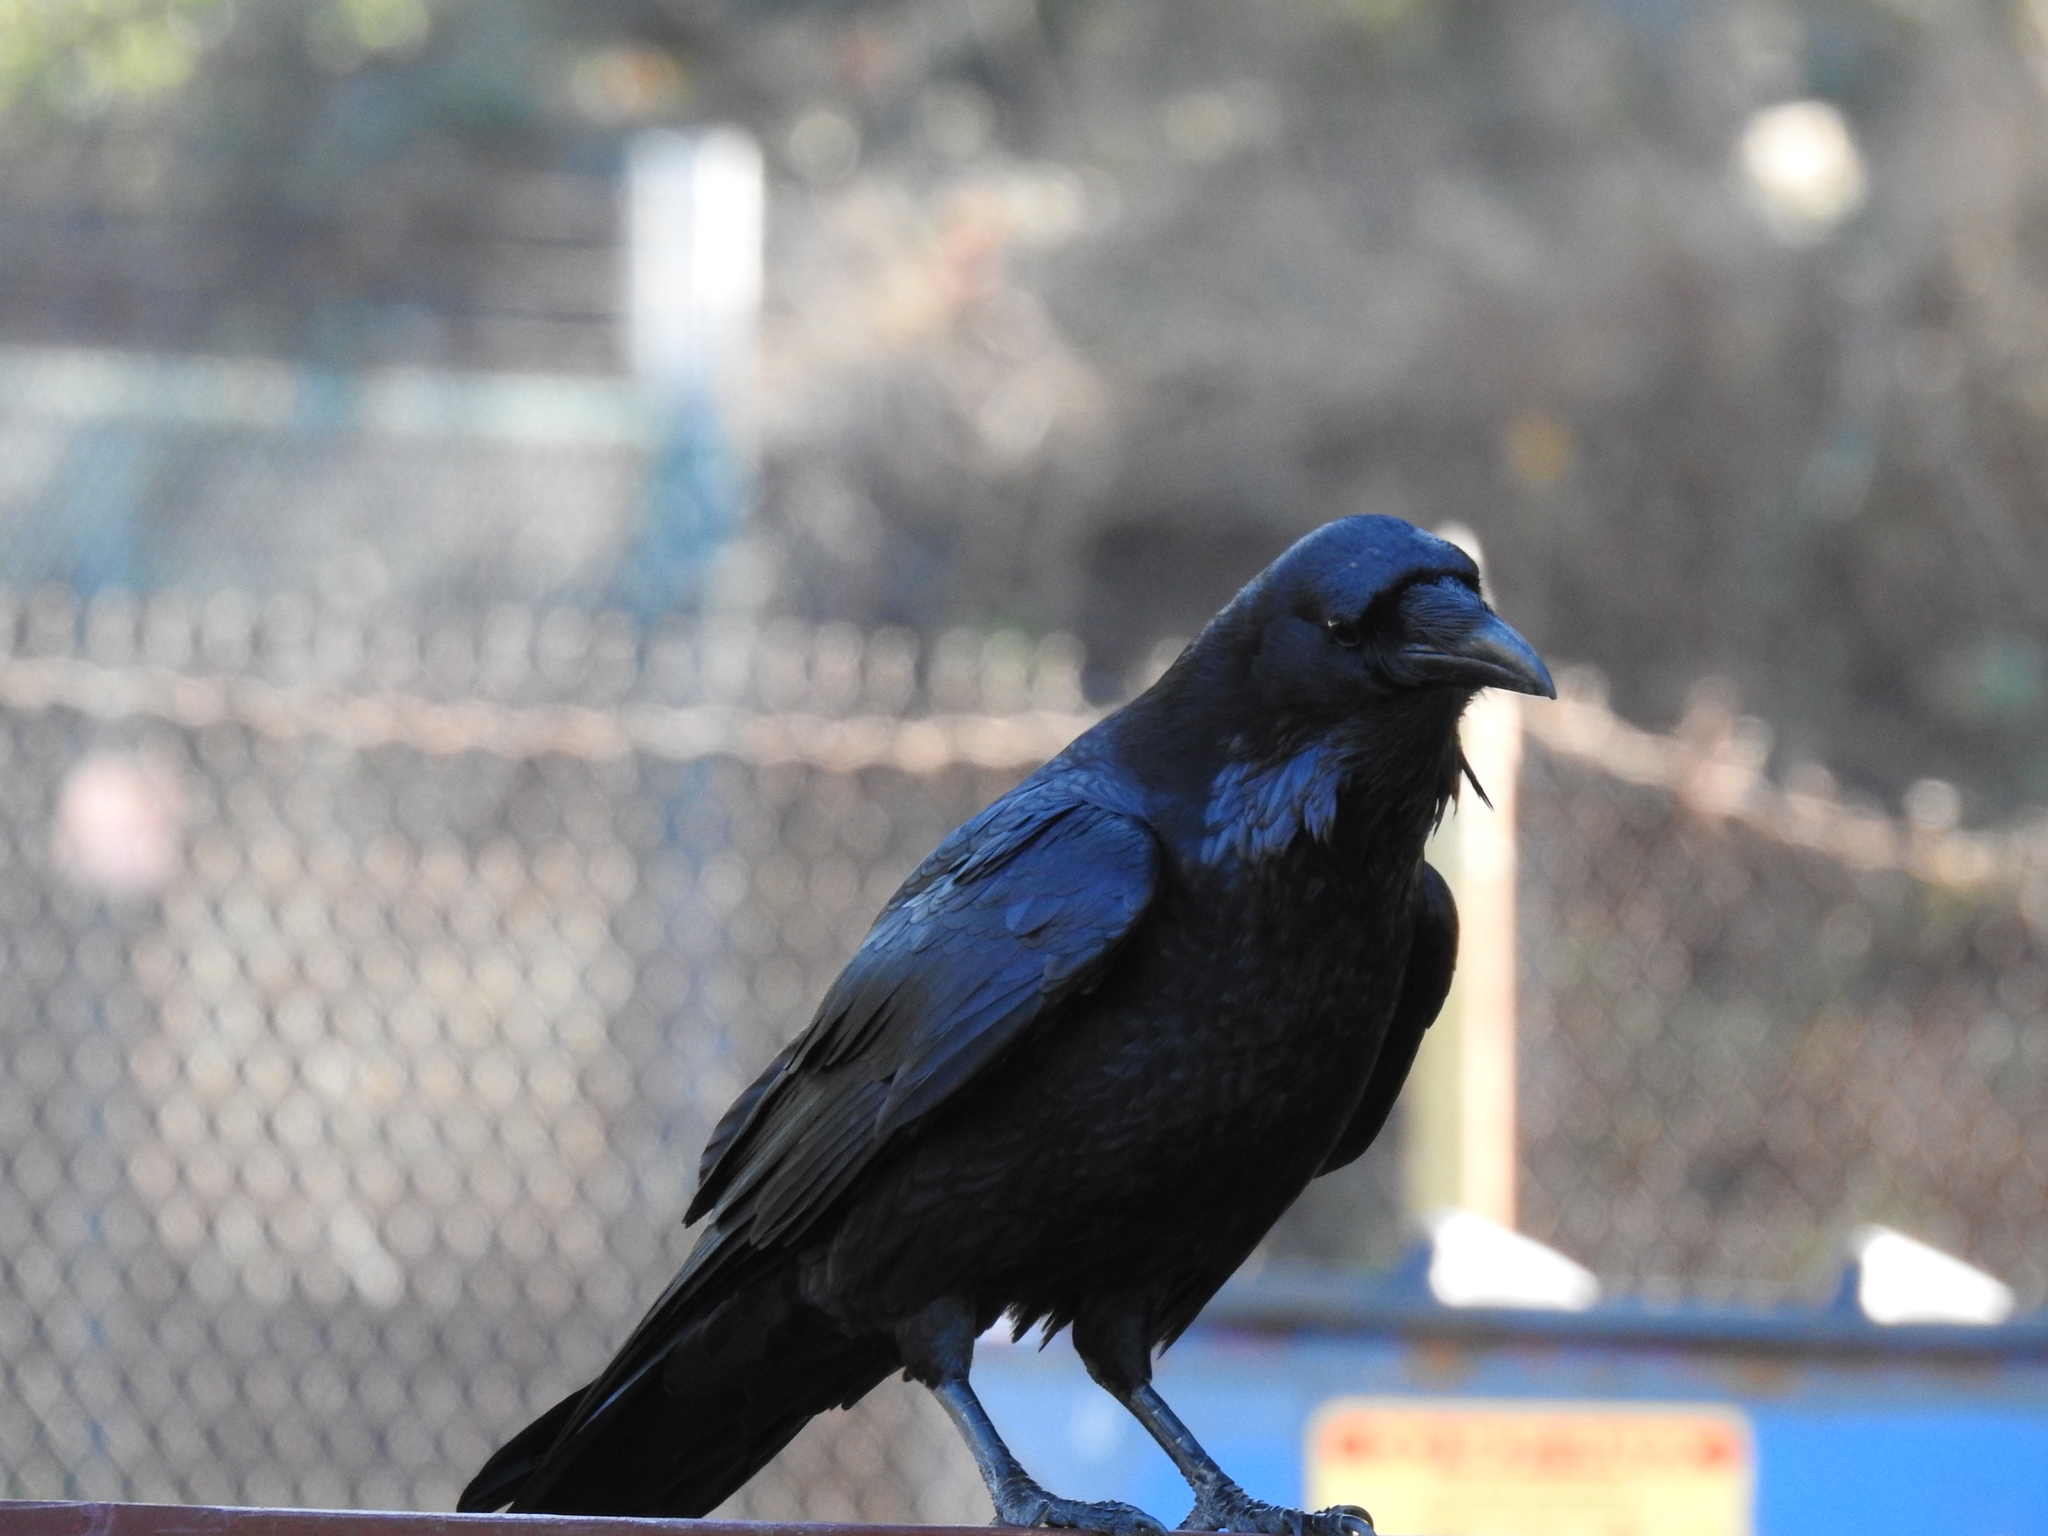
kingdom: Animalia
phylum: Chordata
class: Aves
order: Passeriformes
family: Corvidae
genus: Corvus
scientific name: Corvus corax
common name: Common raven
